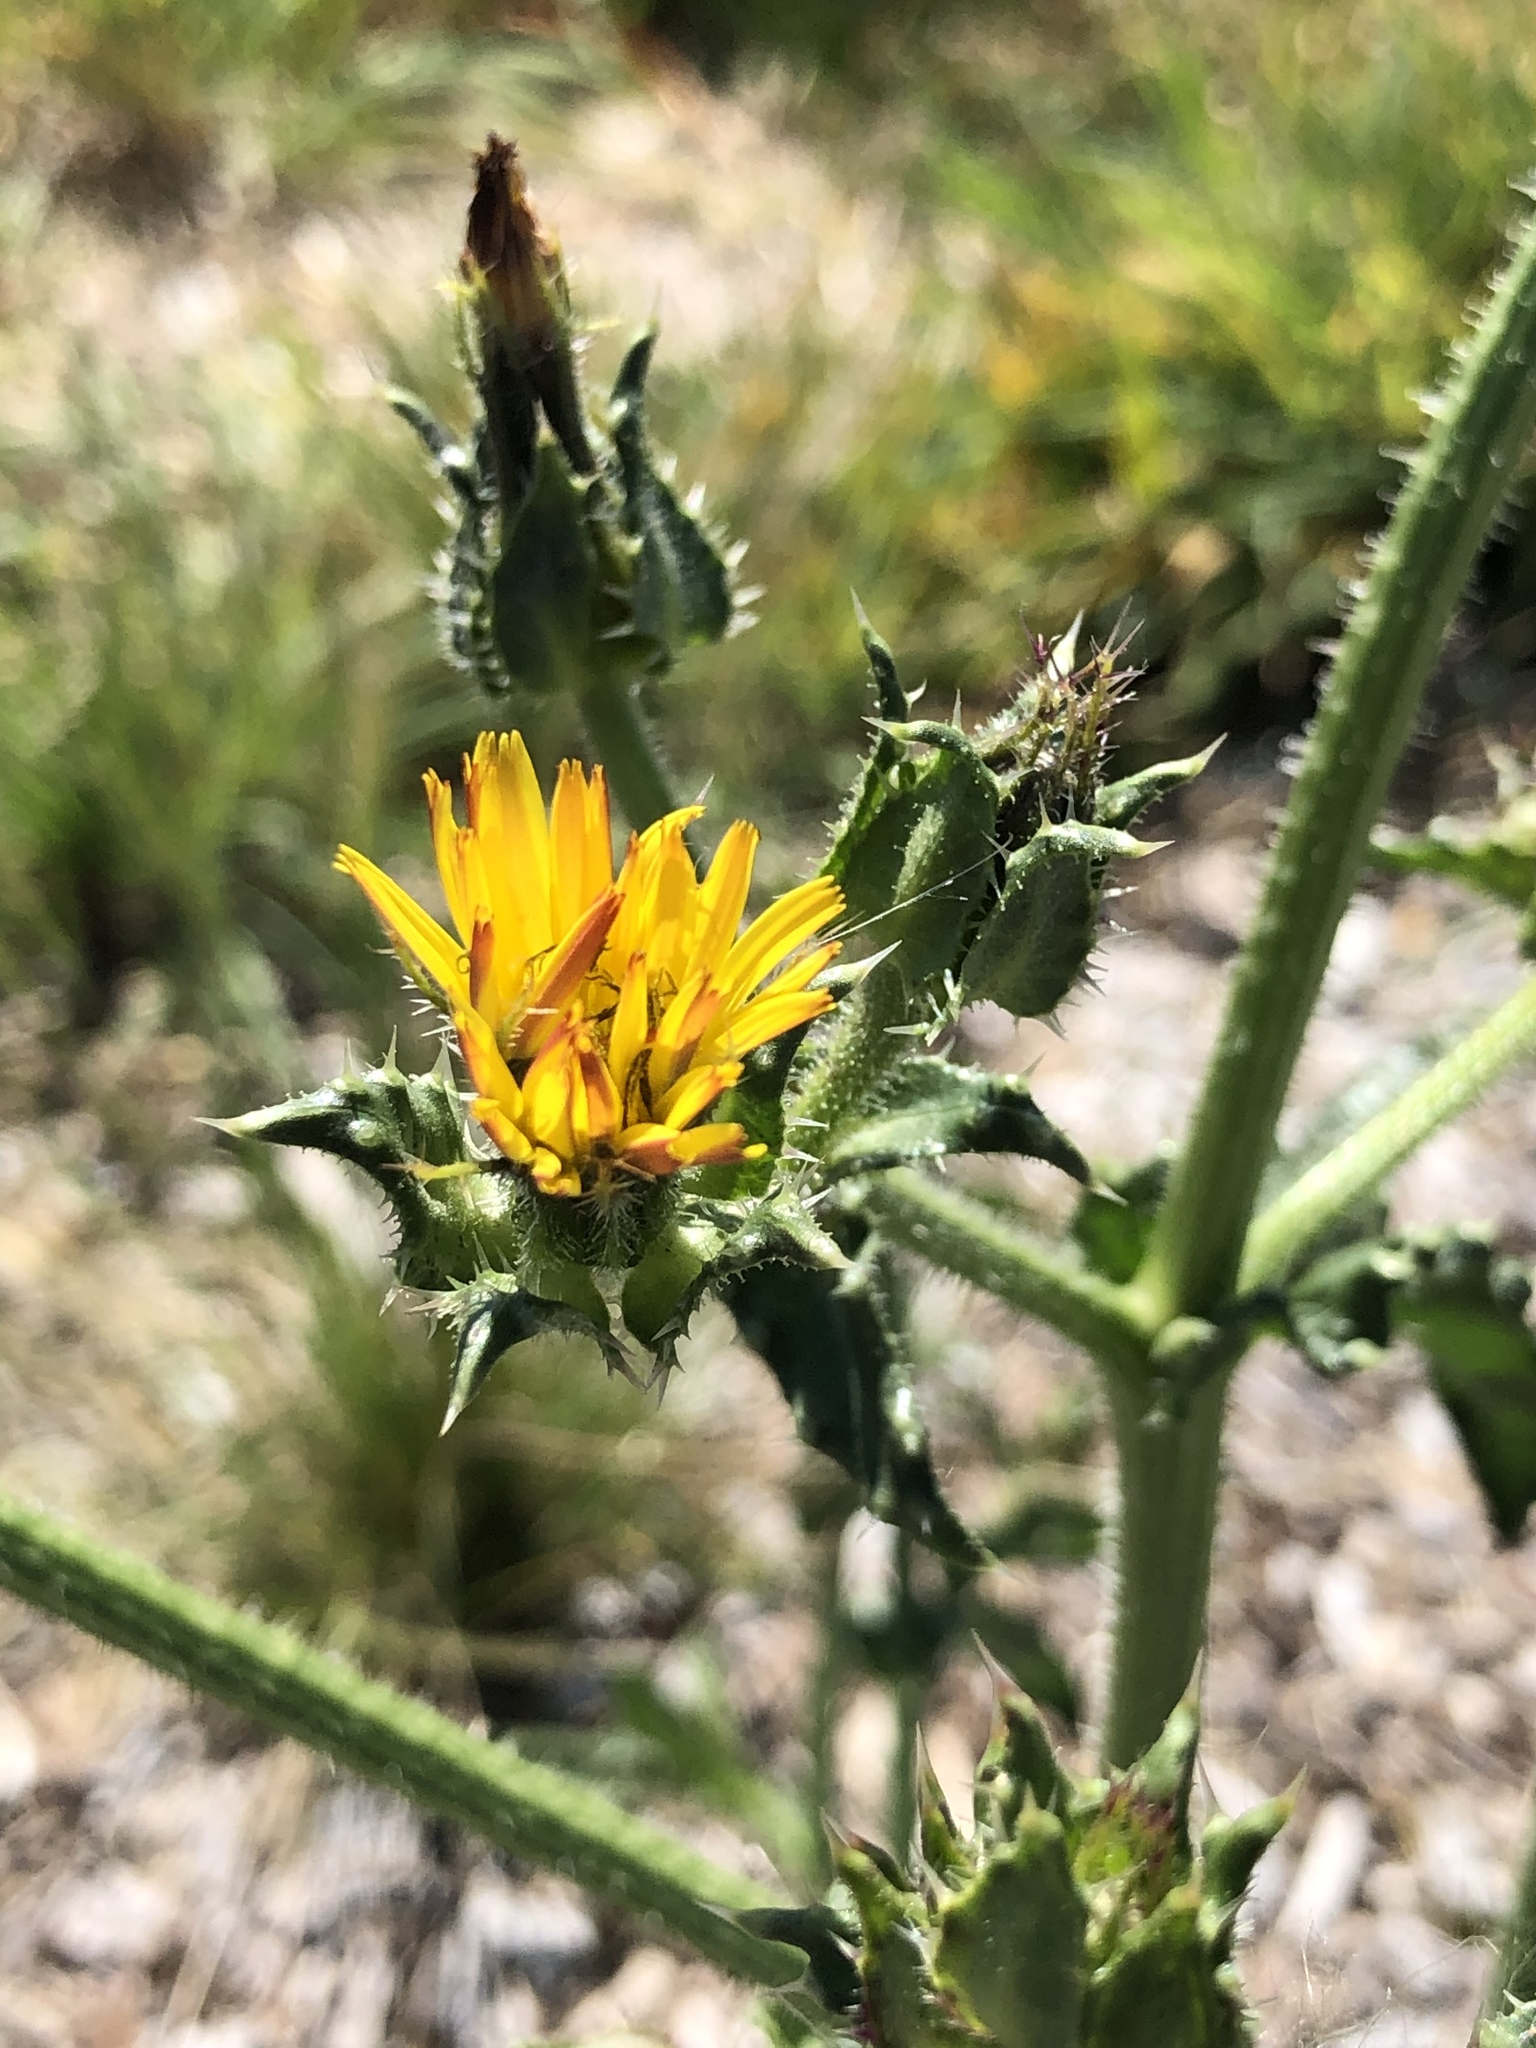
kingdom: Plantae
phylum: Tracheophyta
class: Magnoliopsida
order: Asterales
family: Asteraceae
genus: Helminthotheca
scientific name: Helminthotheca echioides
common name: Ox-tongue
